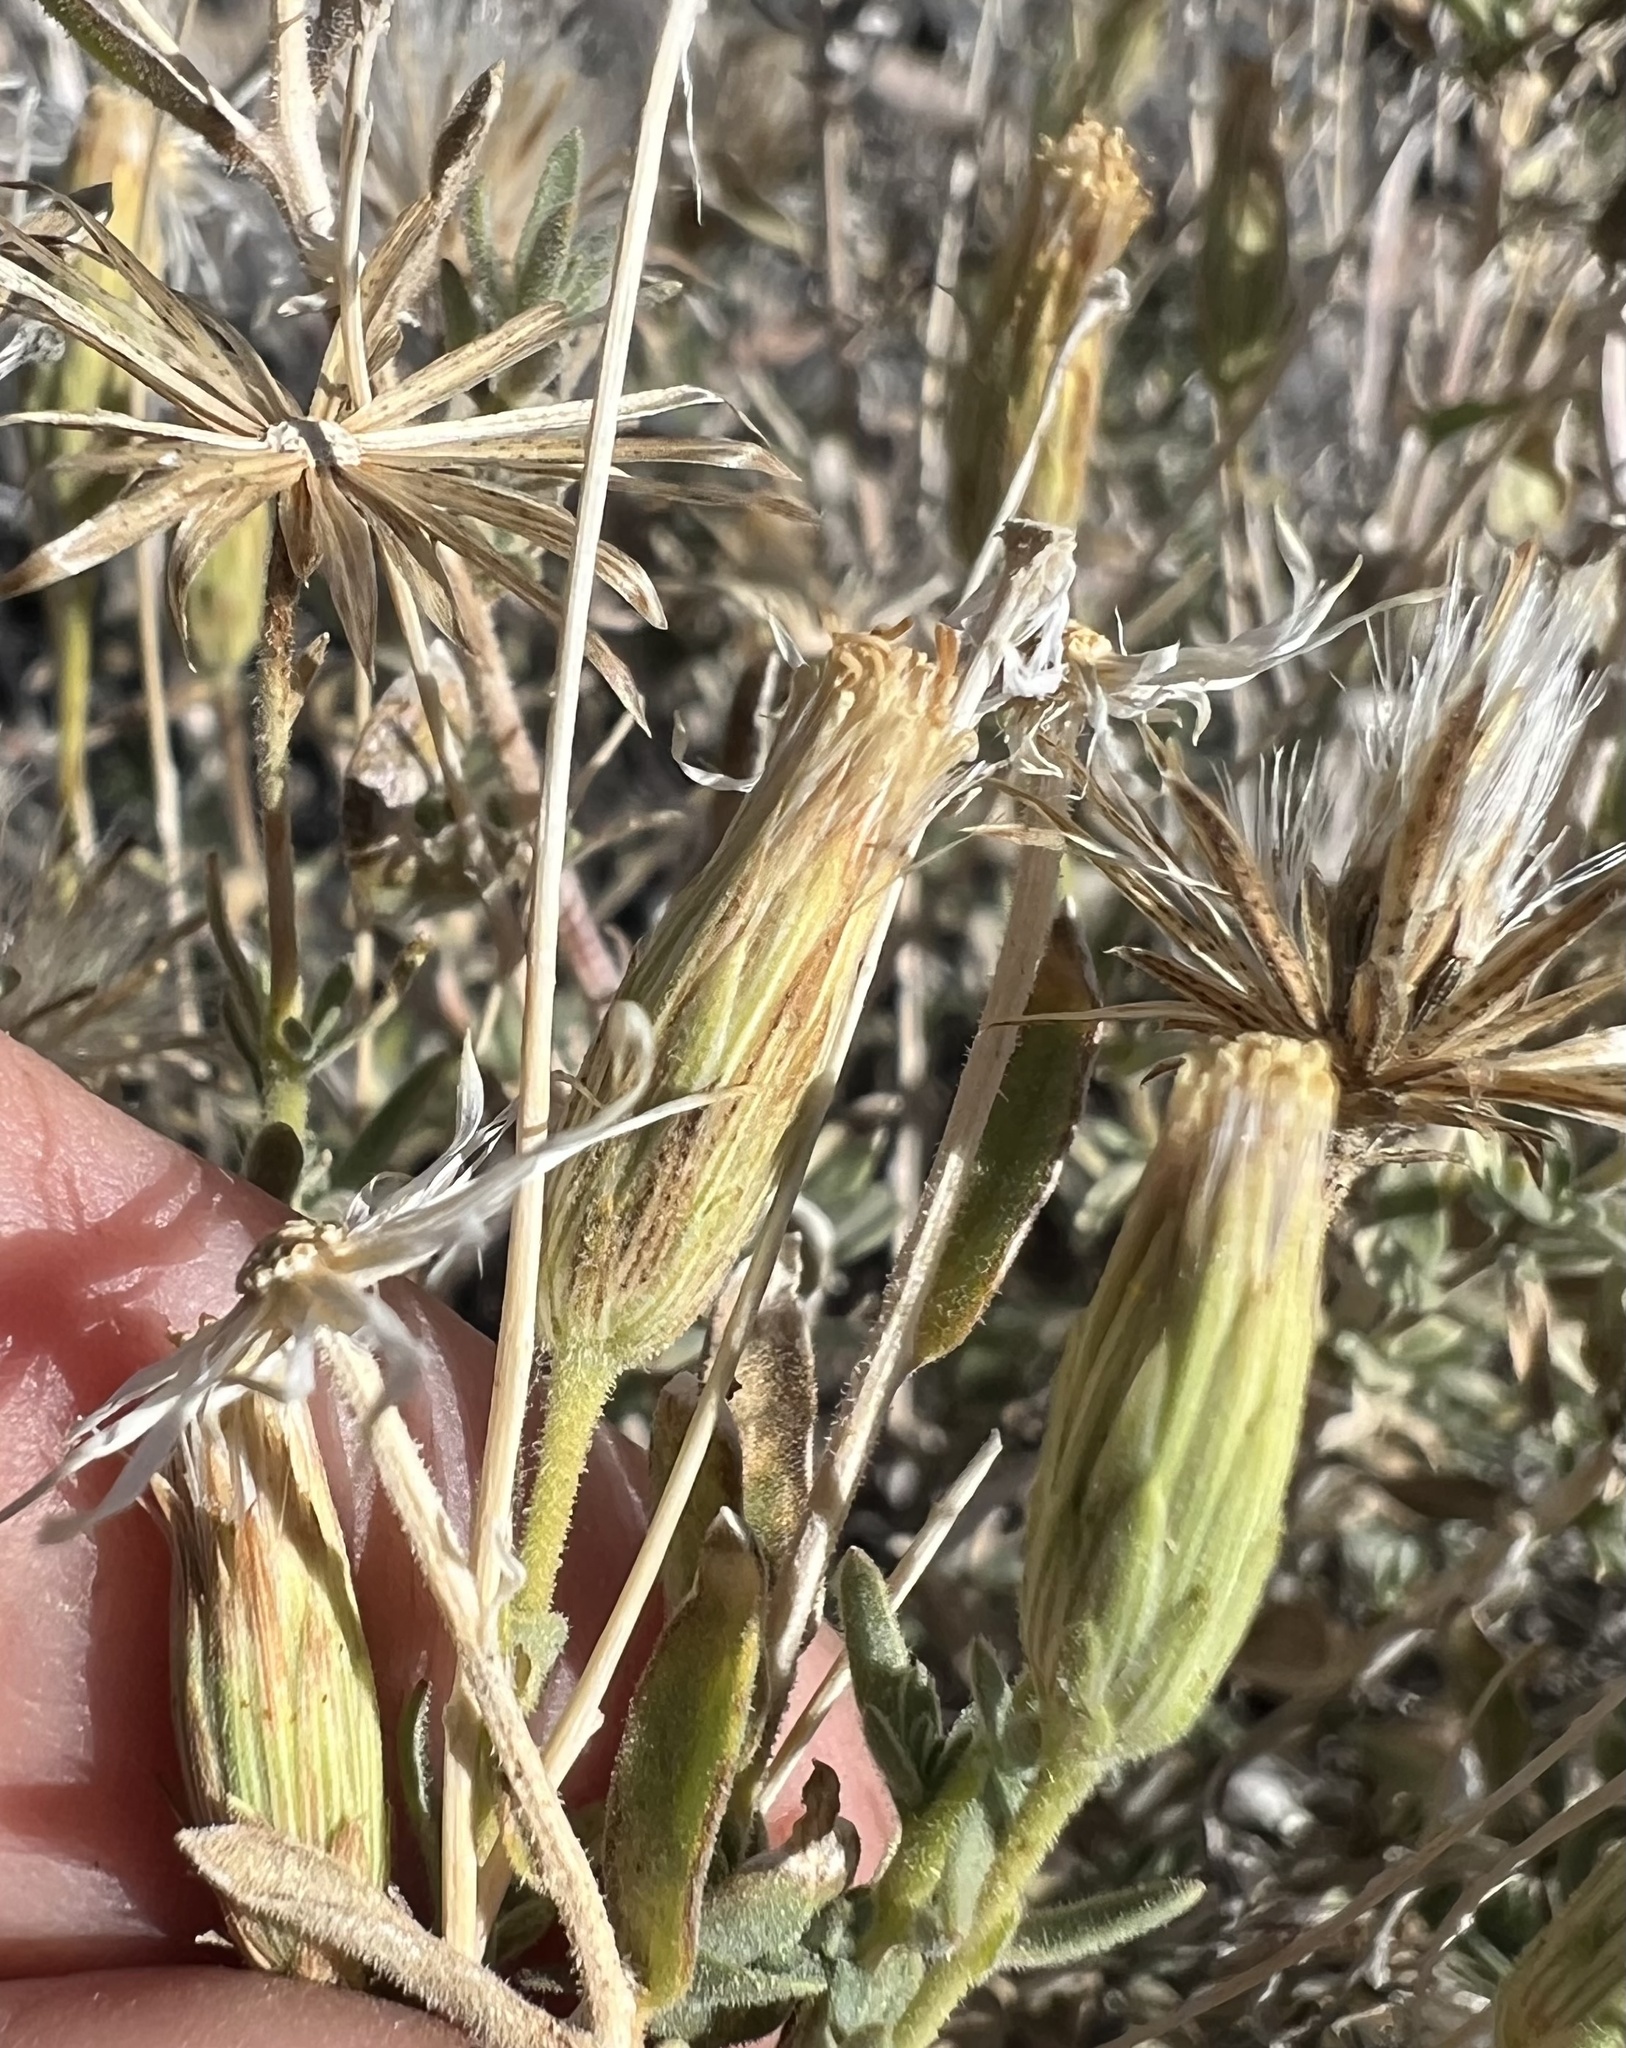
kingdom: Plantae
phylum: Tracheophyta
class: Magnoliopsida
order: Asterales
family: Asteraceae
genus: Brickellia
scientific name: Brickellia oblongifolia
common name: Mojave brickellbush
